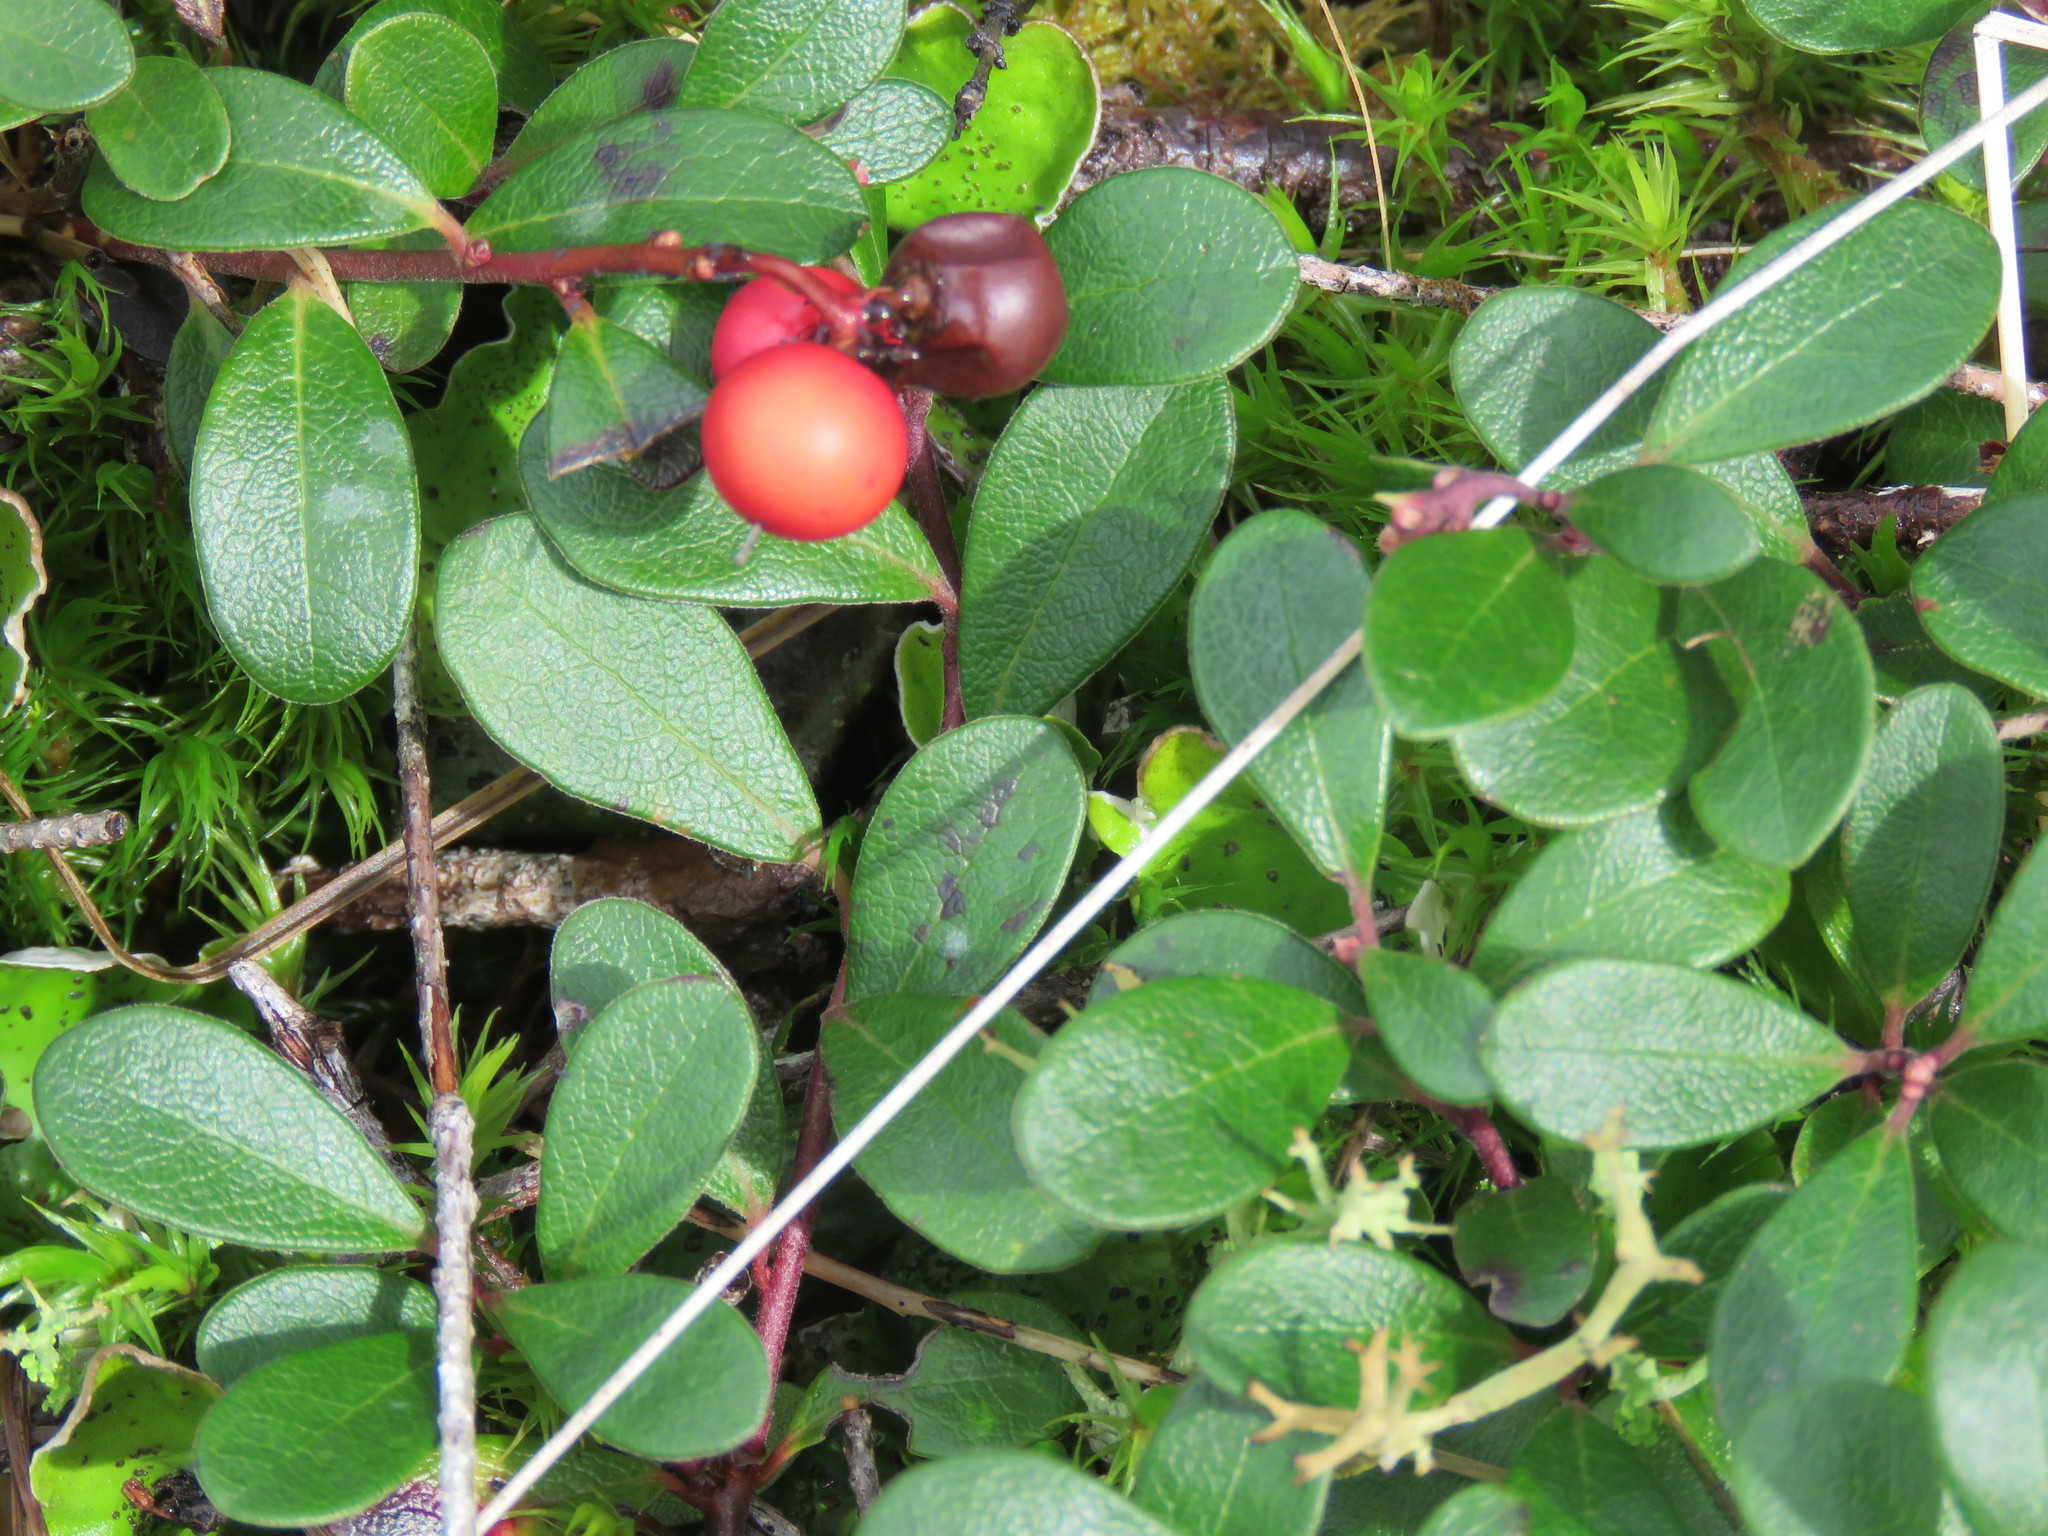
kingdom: Plantae
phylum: Tracheophyta
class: Magnoliopsida
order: Ericales
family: Ericaceae
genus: Arctostaphylos
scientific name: Arctostaphylos uva-ursi
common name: Bearberry
